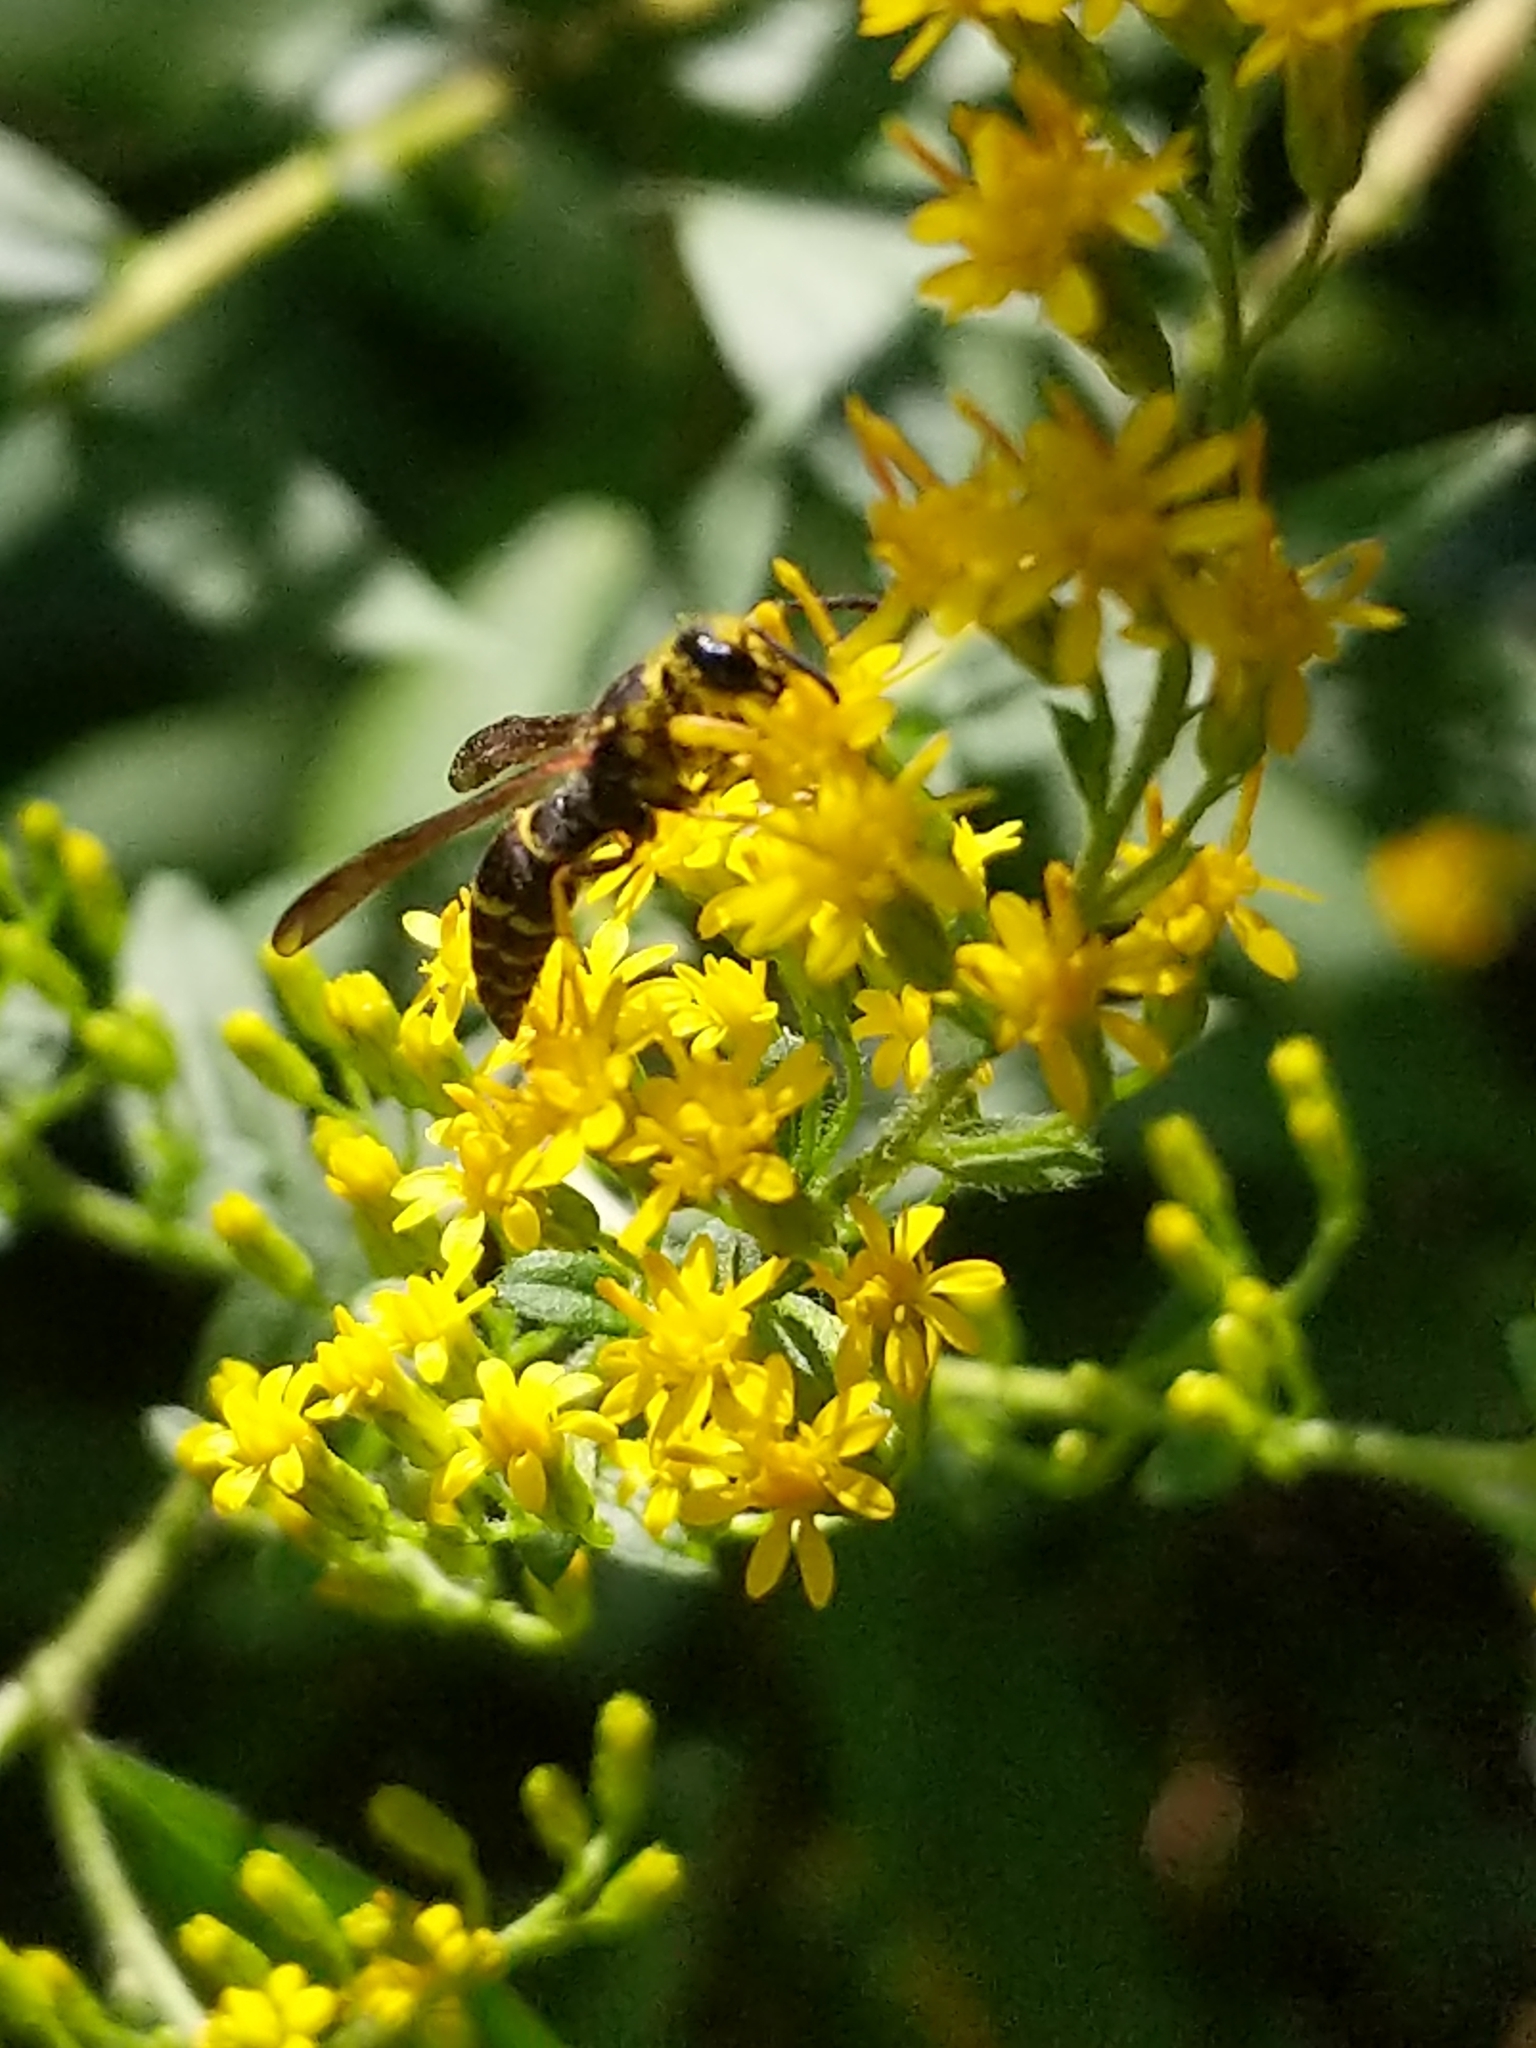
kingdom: Animalia
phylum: Arthropoda
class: Insecta
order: Hymenoptera
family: Vespidae
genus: Ancistrocerus
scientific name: Ancistrocerus
